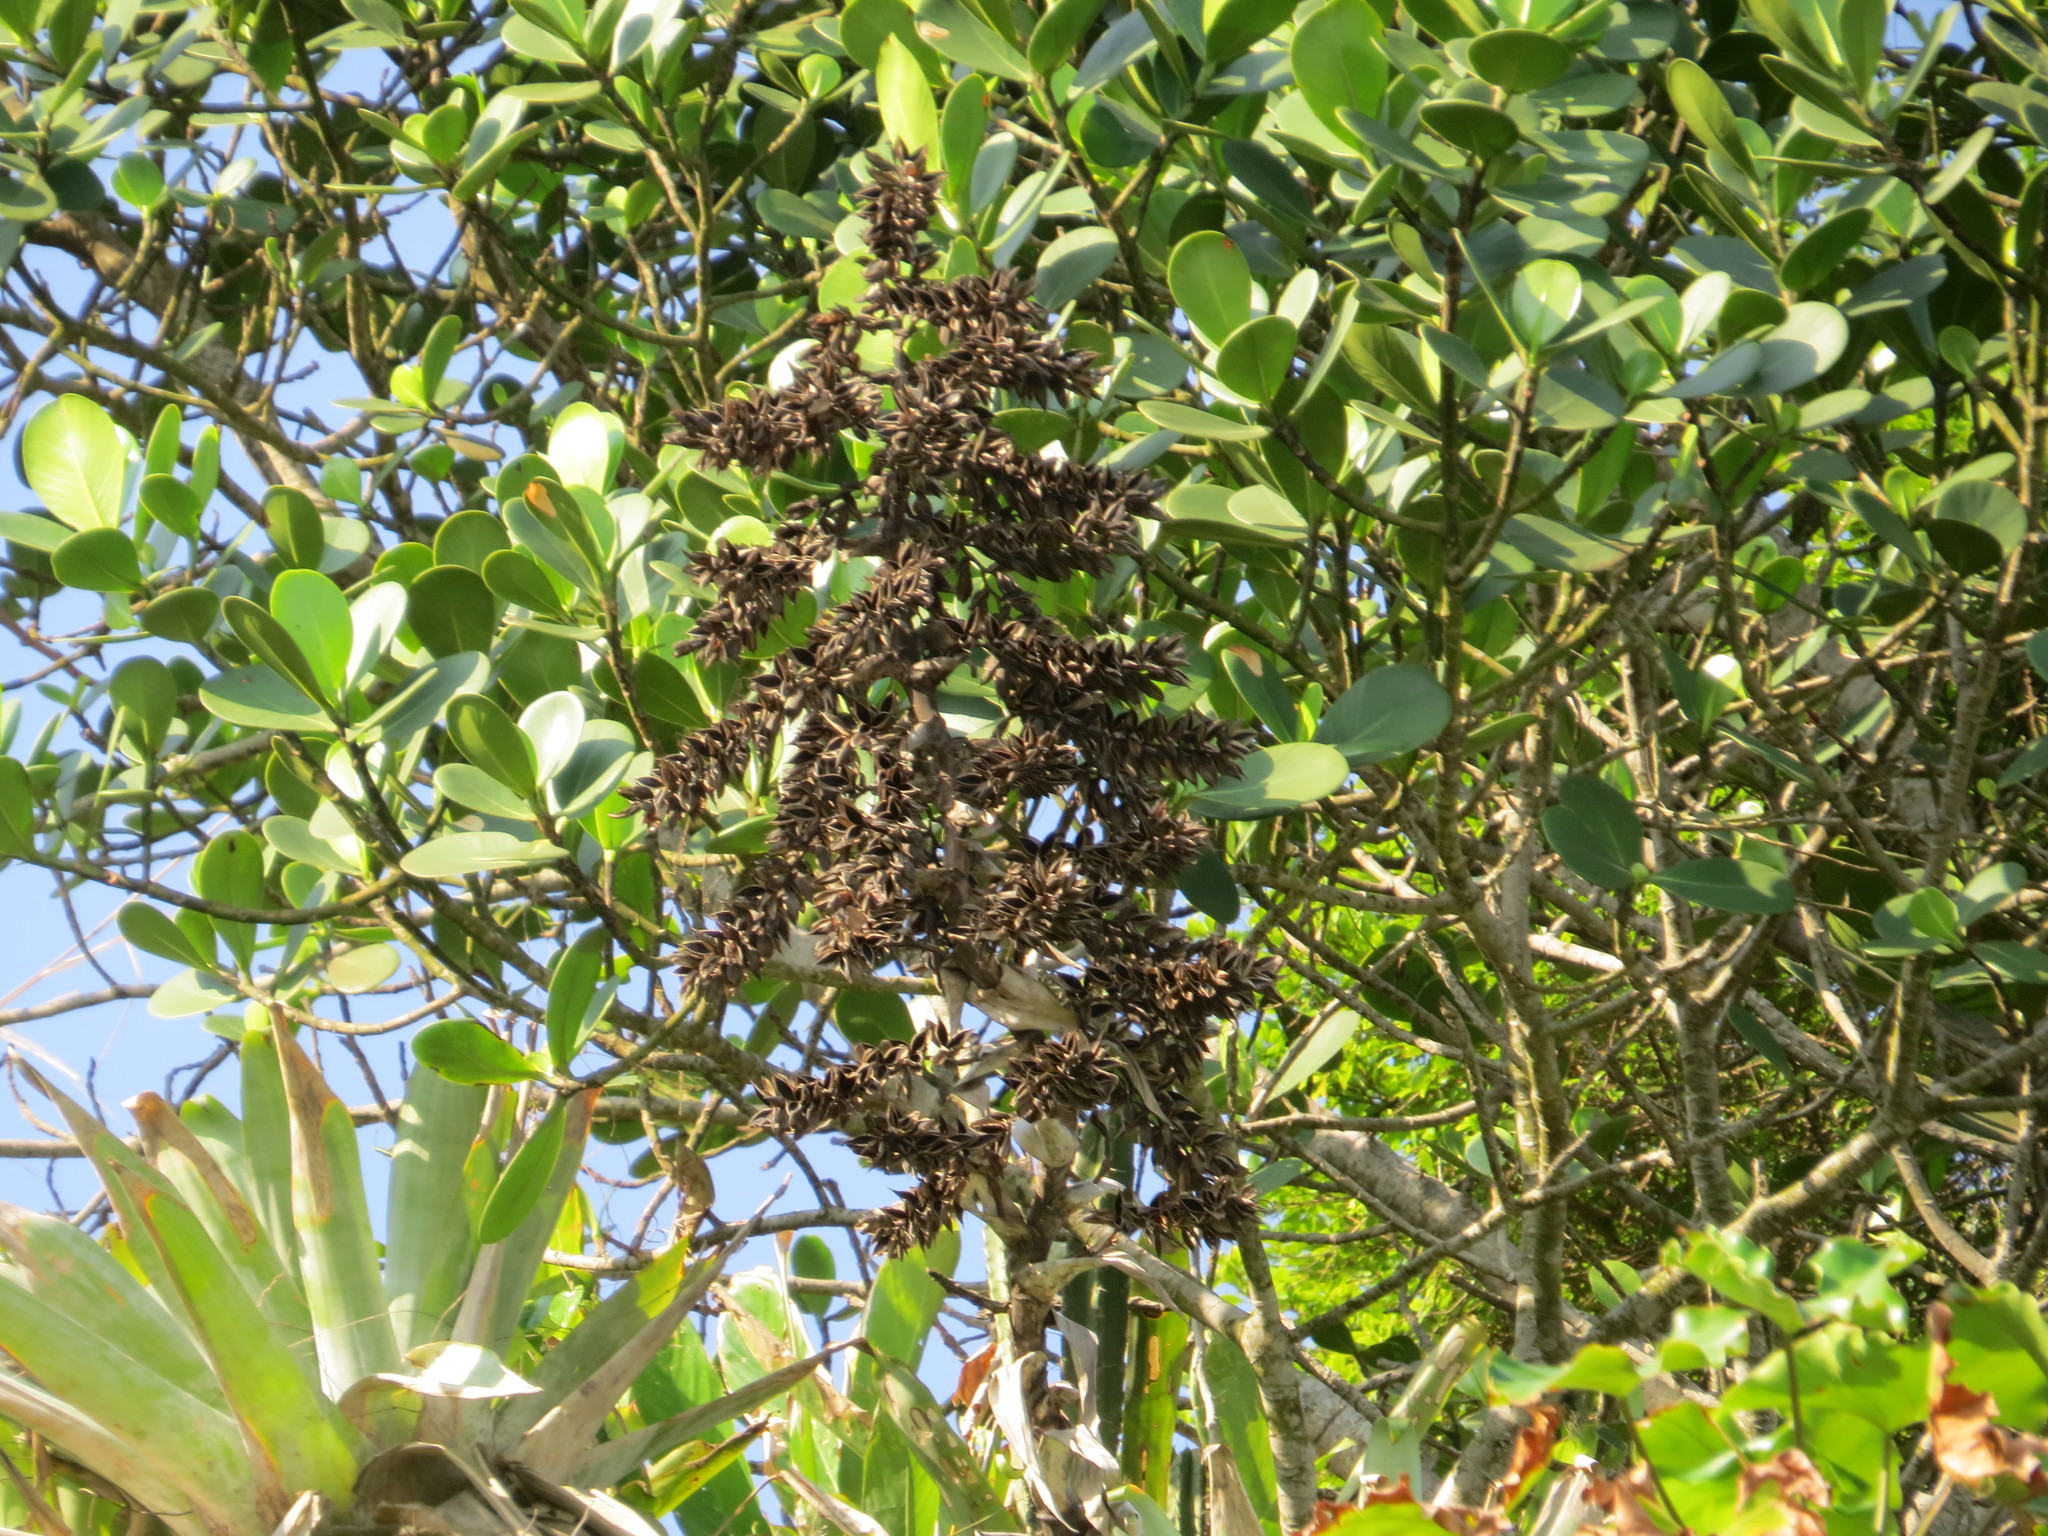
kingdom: Plantae
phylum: Tracheophyta
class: Liliopsida
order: Poales
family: Bromeliaceae
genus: Alcantarea
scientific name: Alcantarea glaziouana
